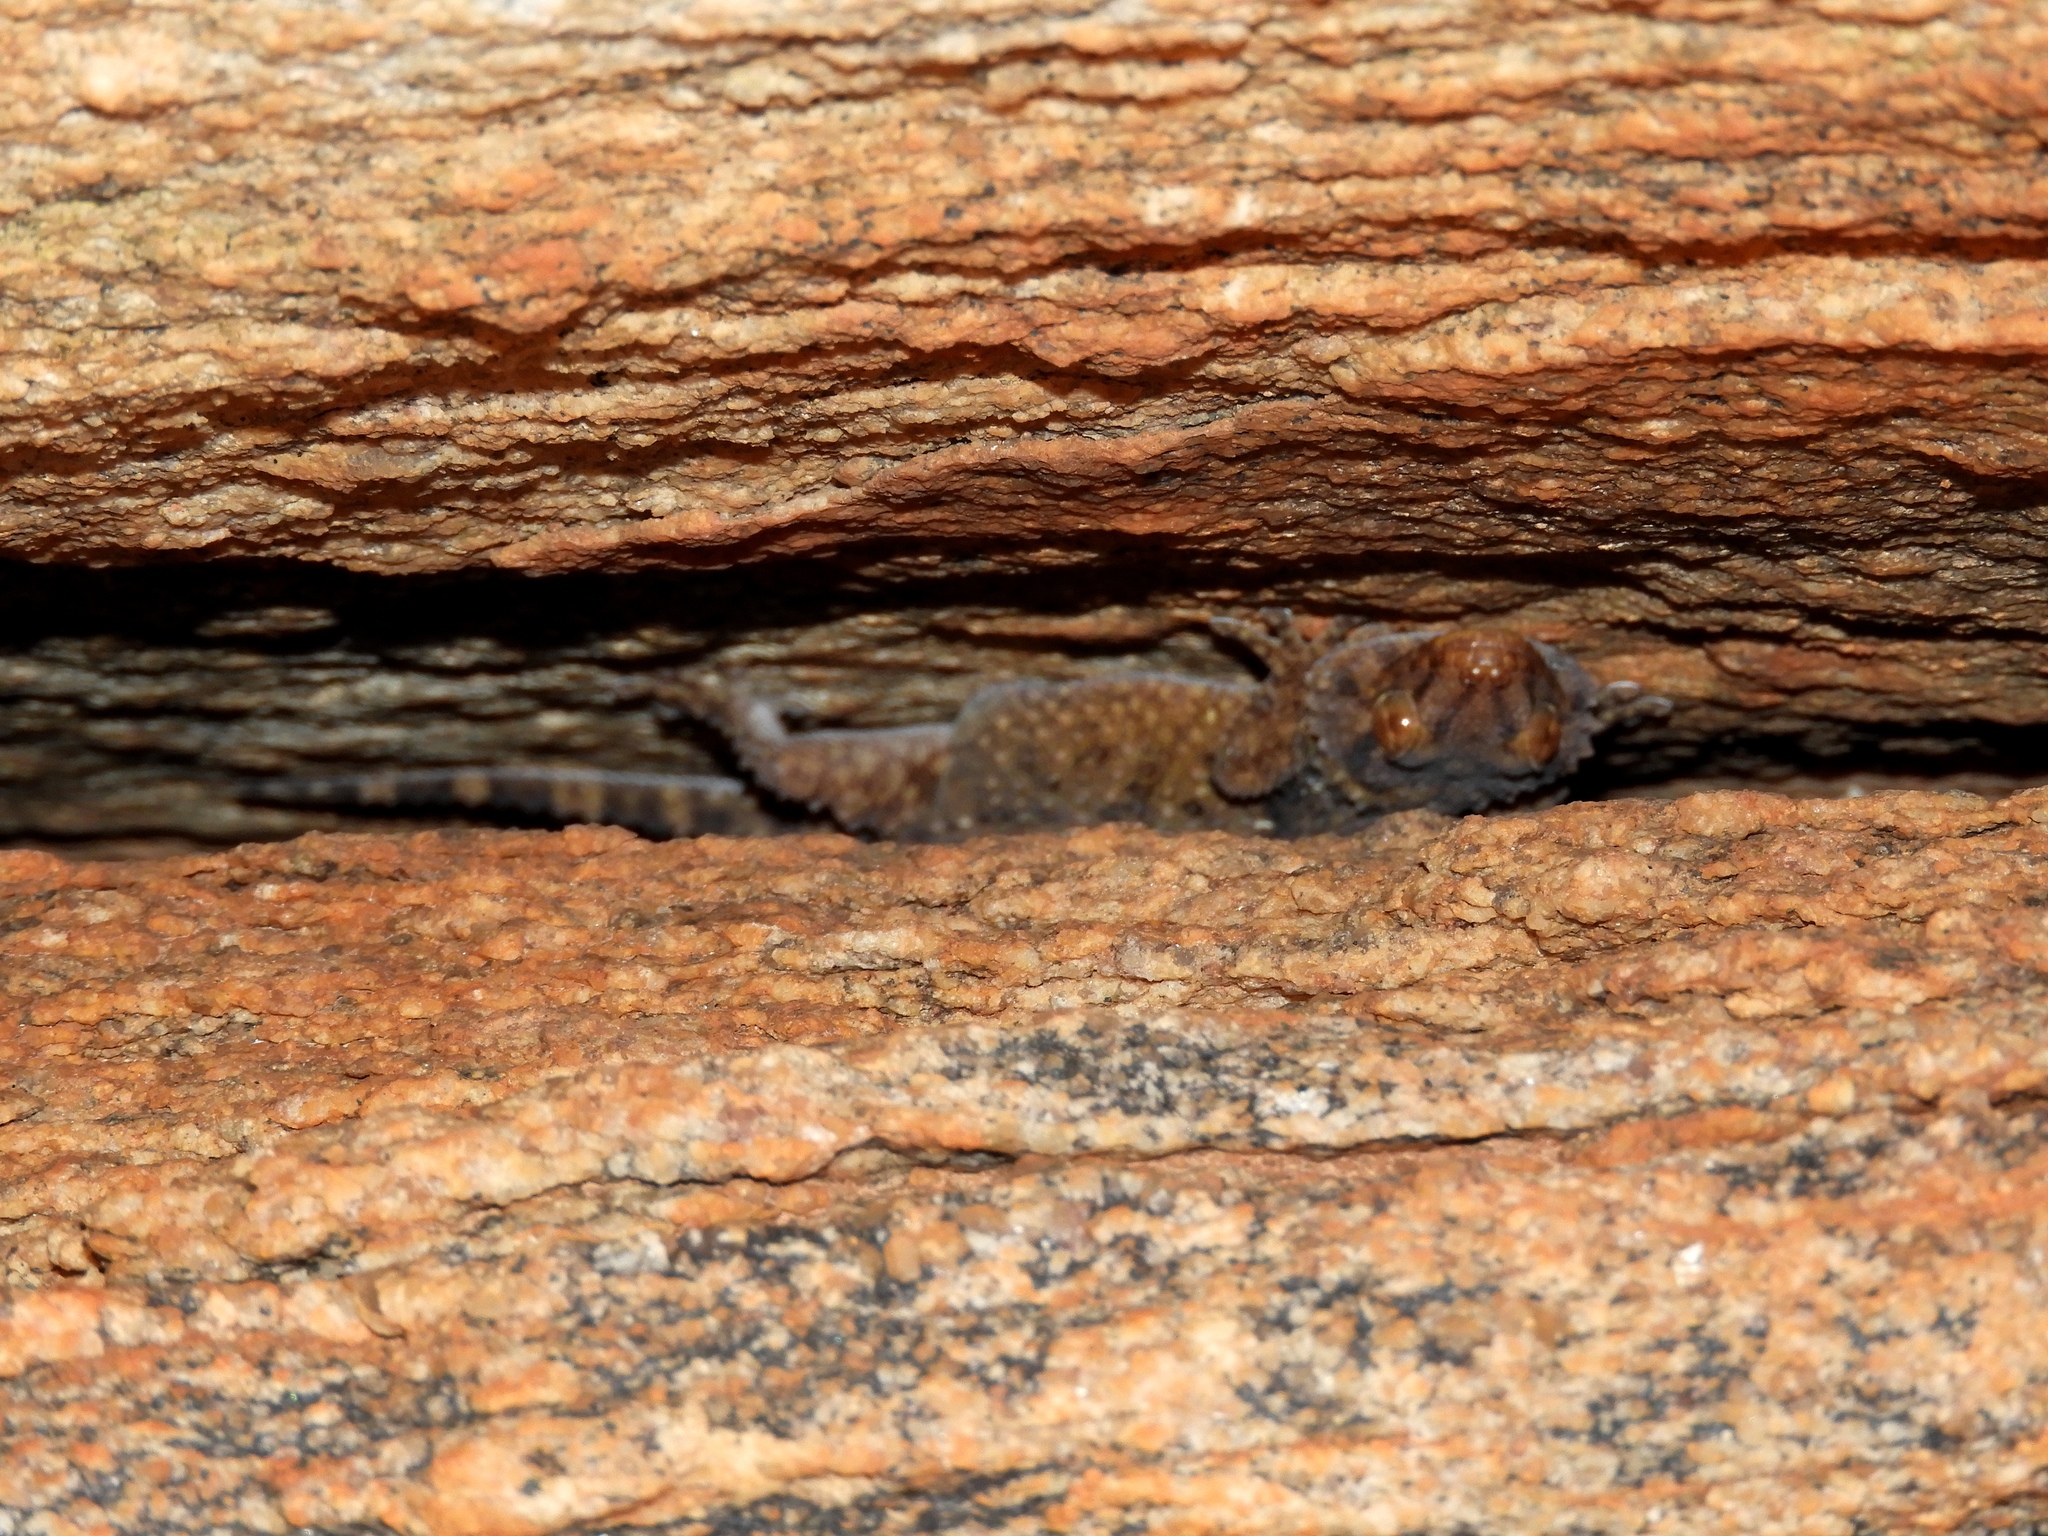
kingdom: Animalia
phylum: Chordata
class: Squamata
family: Gekkonidae
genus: Chondrodactylus
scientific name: Chondrodactylus bibronii
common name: Bibron's gecko
